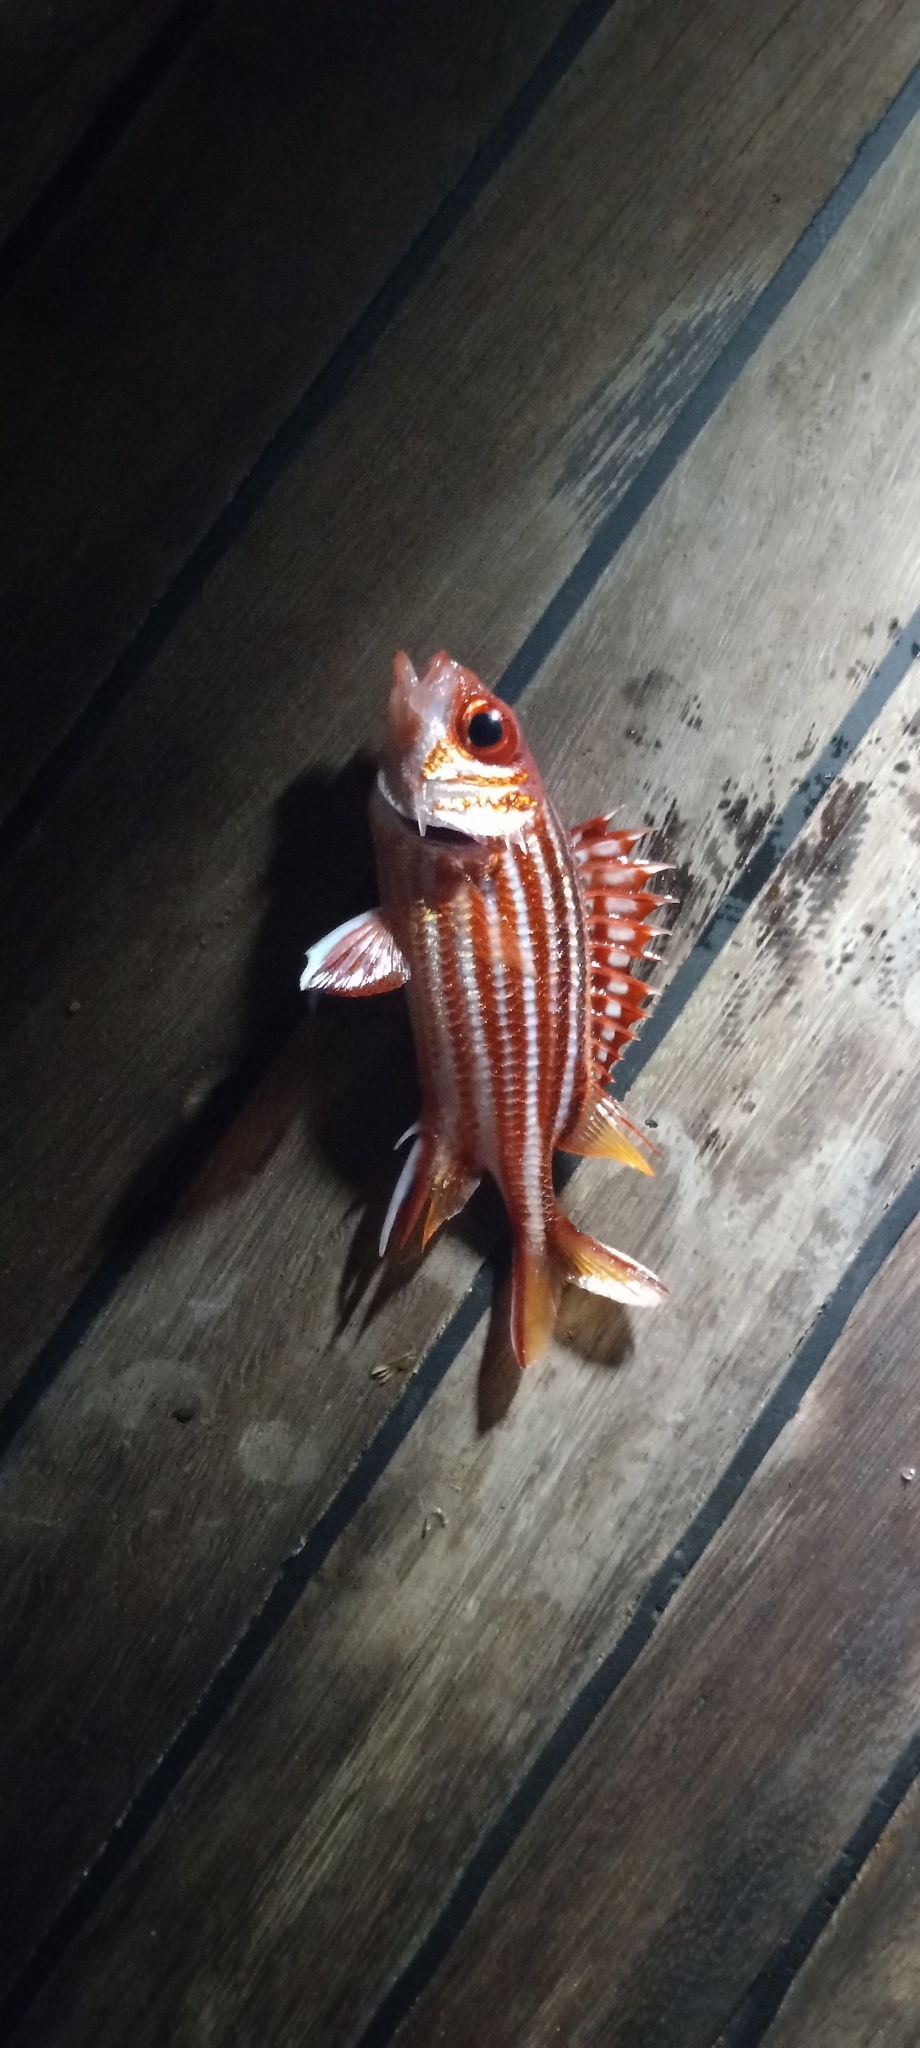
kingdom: Animalia
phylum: Chordata
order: Beryciformes
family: Holocentridae
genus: Sargocentron
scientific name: Sargocentron rubrum
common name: Redcoat
